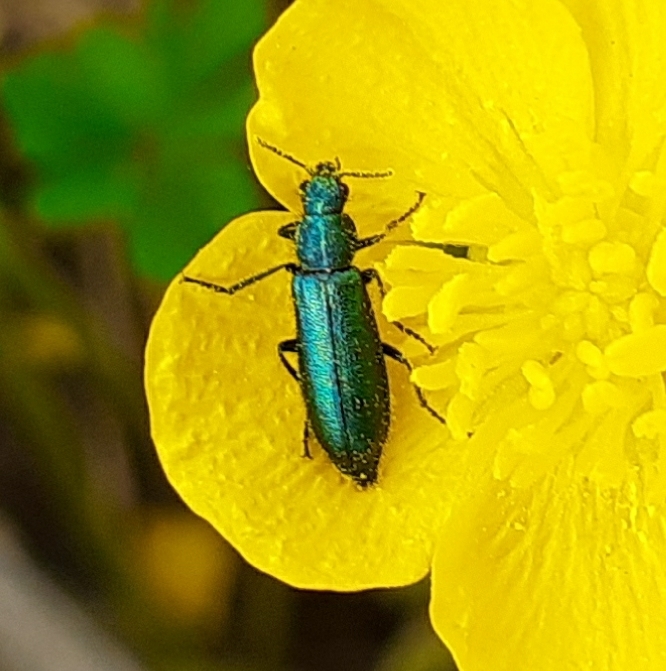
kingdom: Animalia
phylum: Arthropoda
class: Insecta
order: Coleoptera
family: Dasytidae
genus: Psilothrix
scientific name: Psilothrix viridicoerulea
